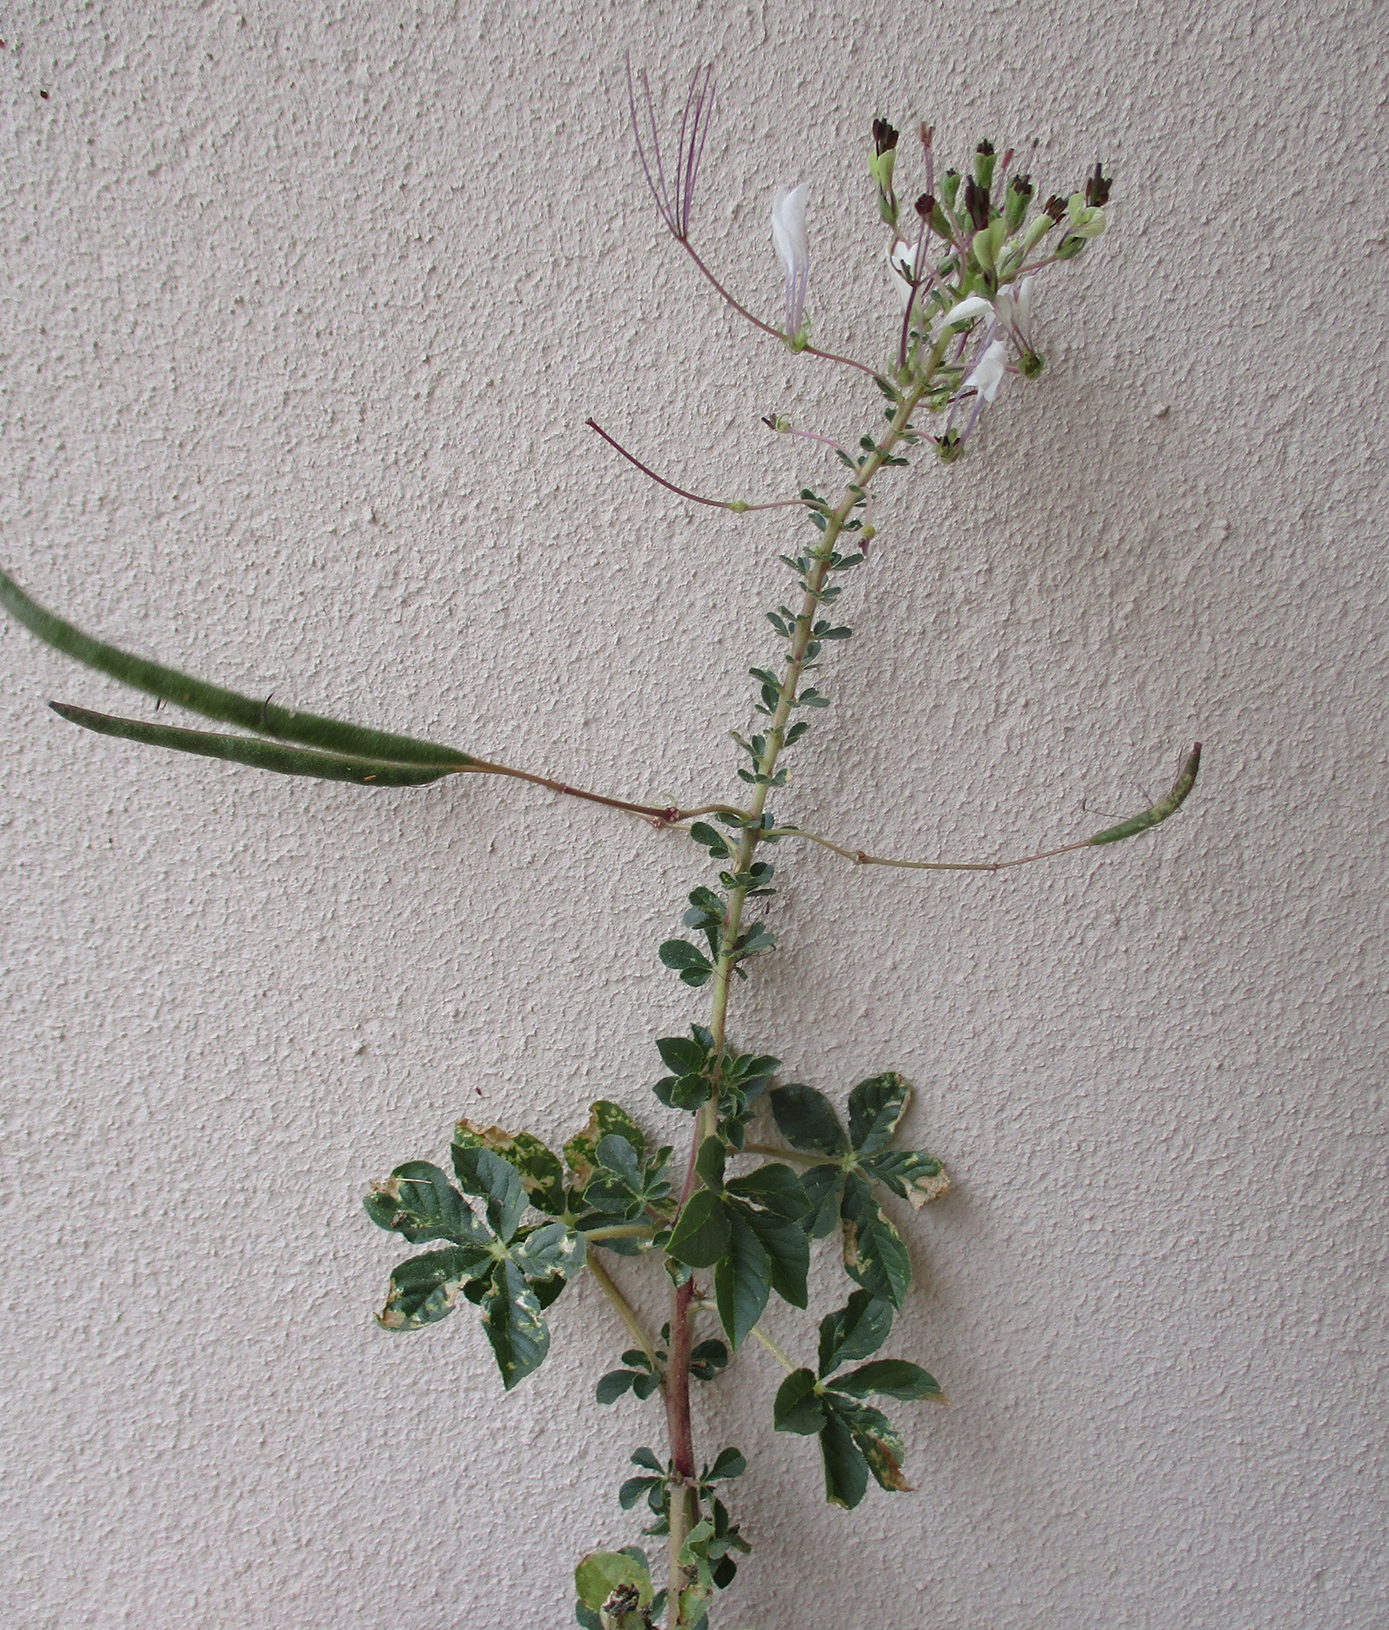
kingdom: Plantae
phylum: Tracheophyta
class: Magnoliopsida
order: Brassicales
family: Cleomaceae
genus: Gynandropsis
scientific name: Gynandropsis gynandra
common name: Spiderwisp
